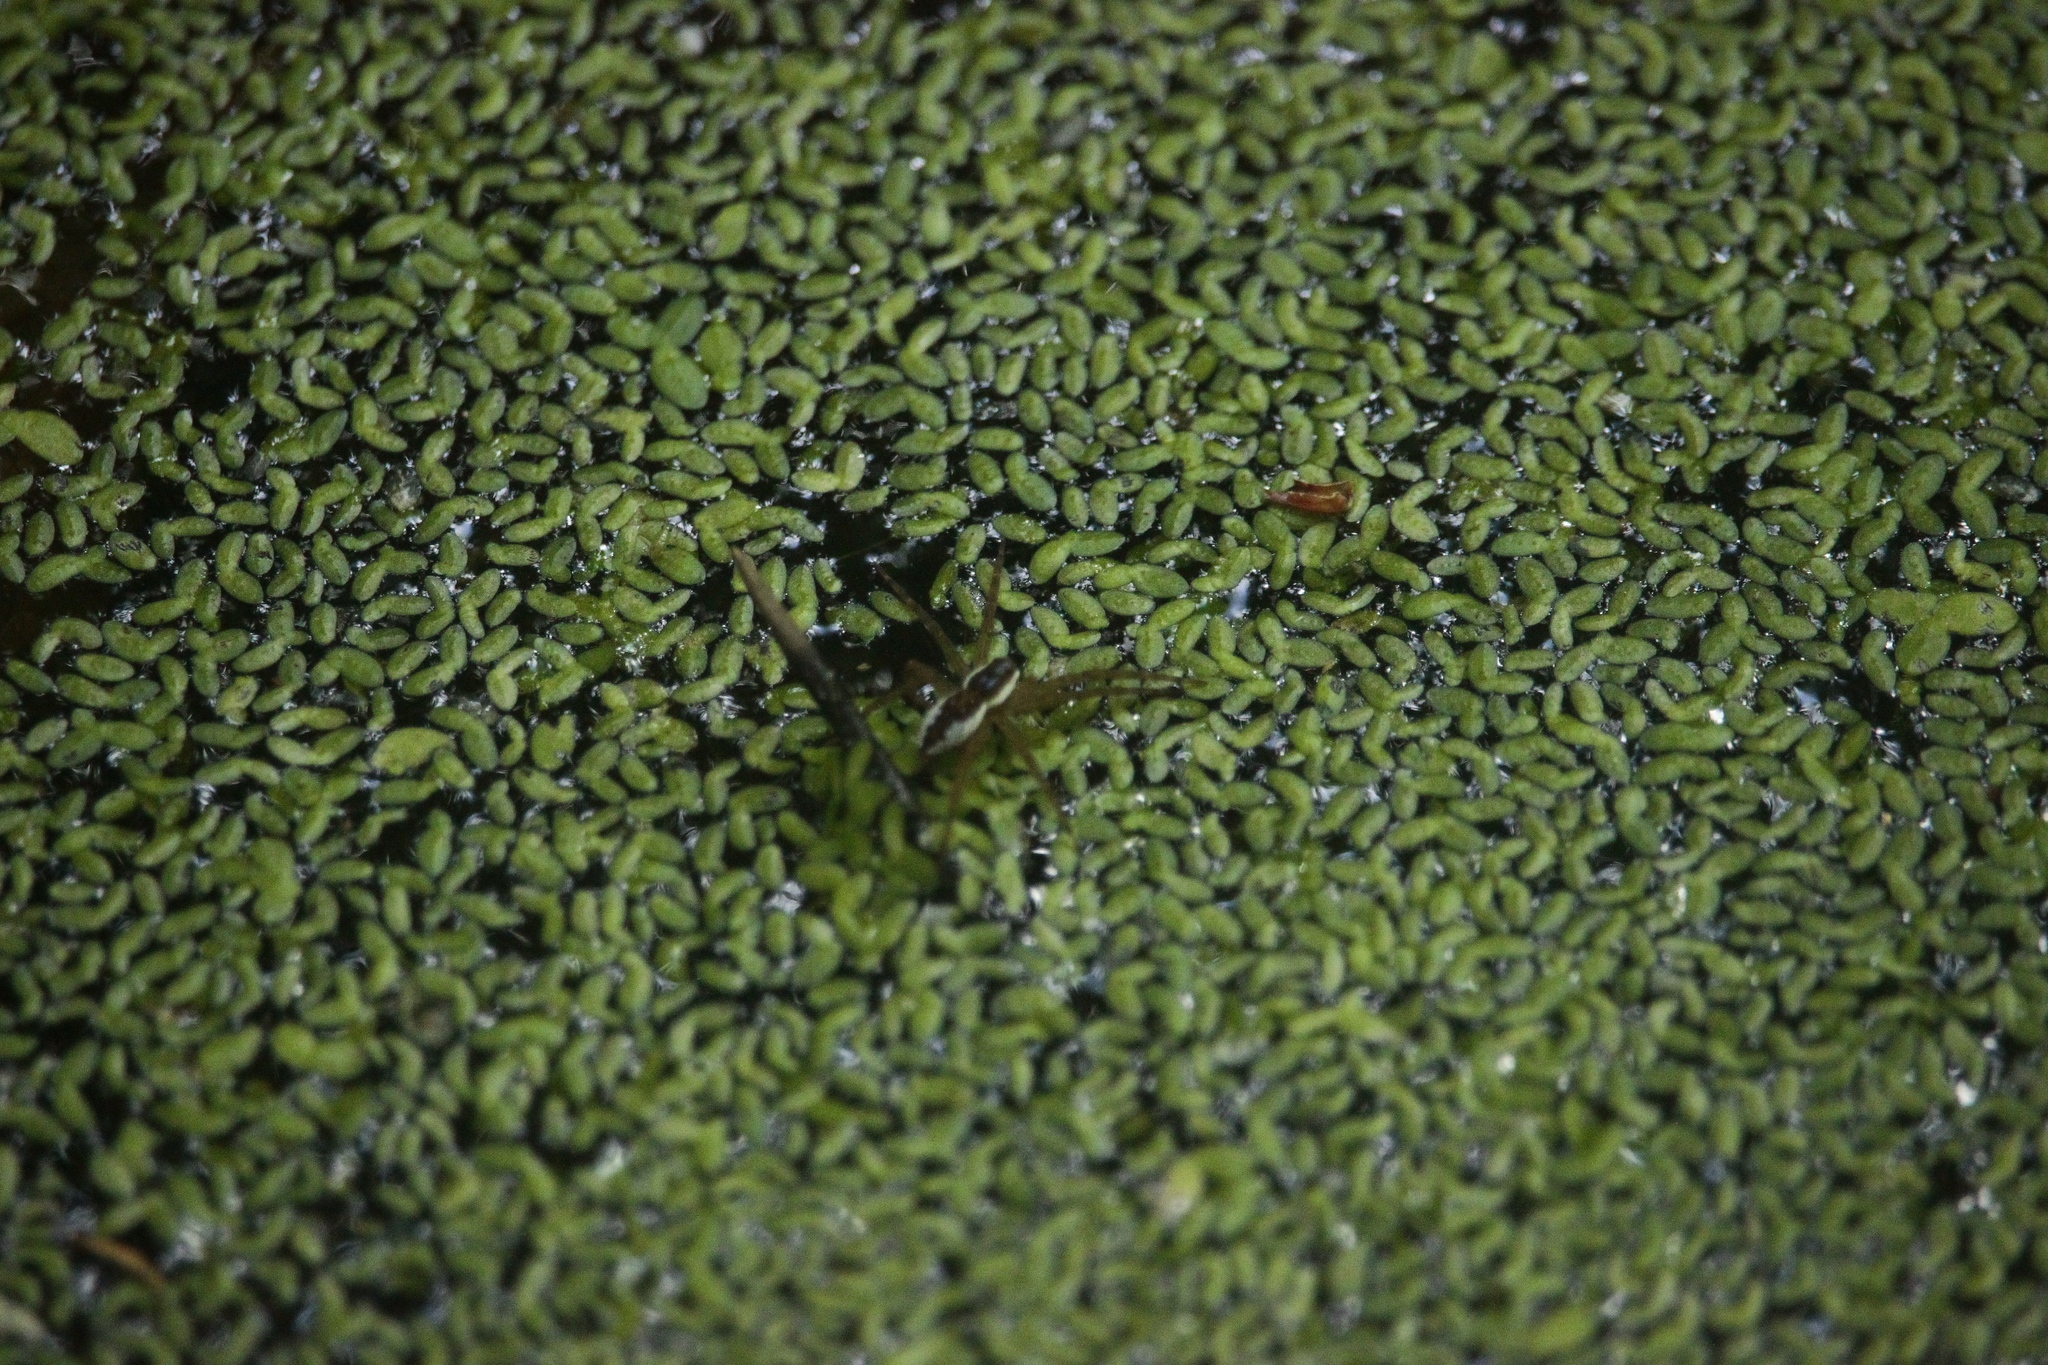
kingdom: Animalia
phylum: Arthropoda
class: Arachnida
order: Araneae
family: Pisauridae
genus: Dolomedes
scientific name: Dolomedes triton
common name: Six-spotted fishing spider
